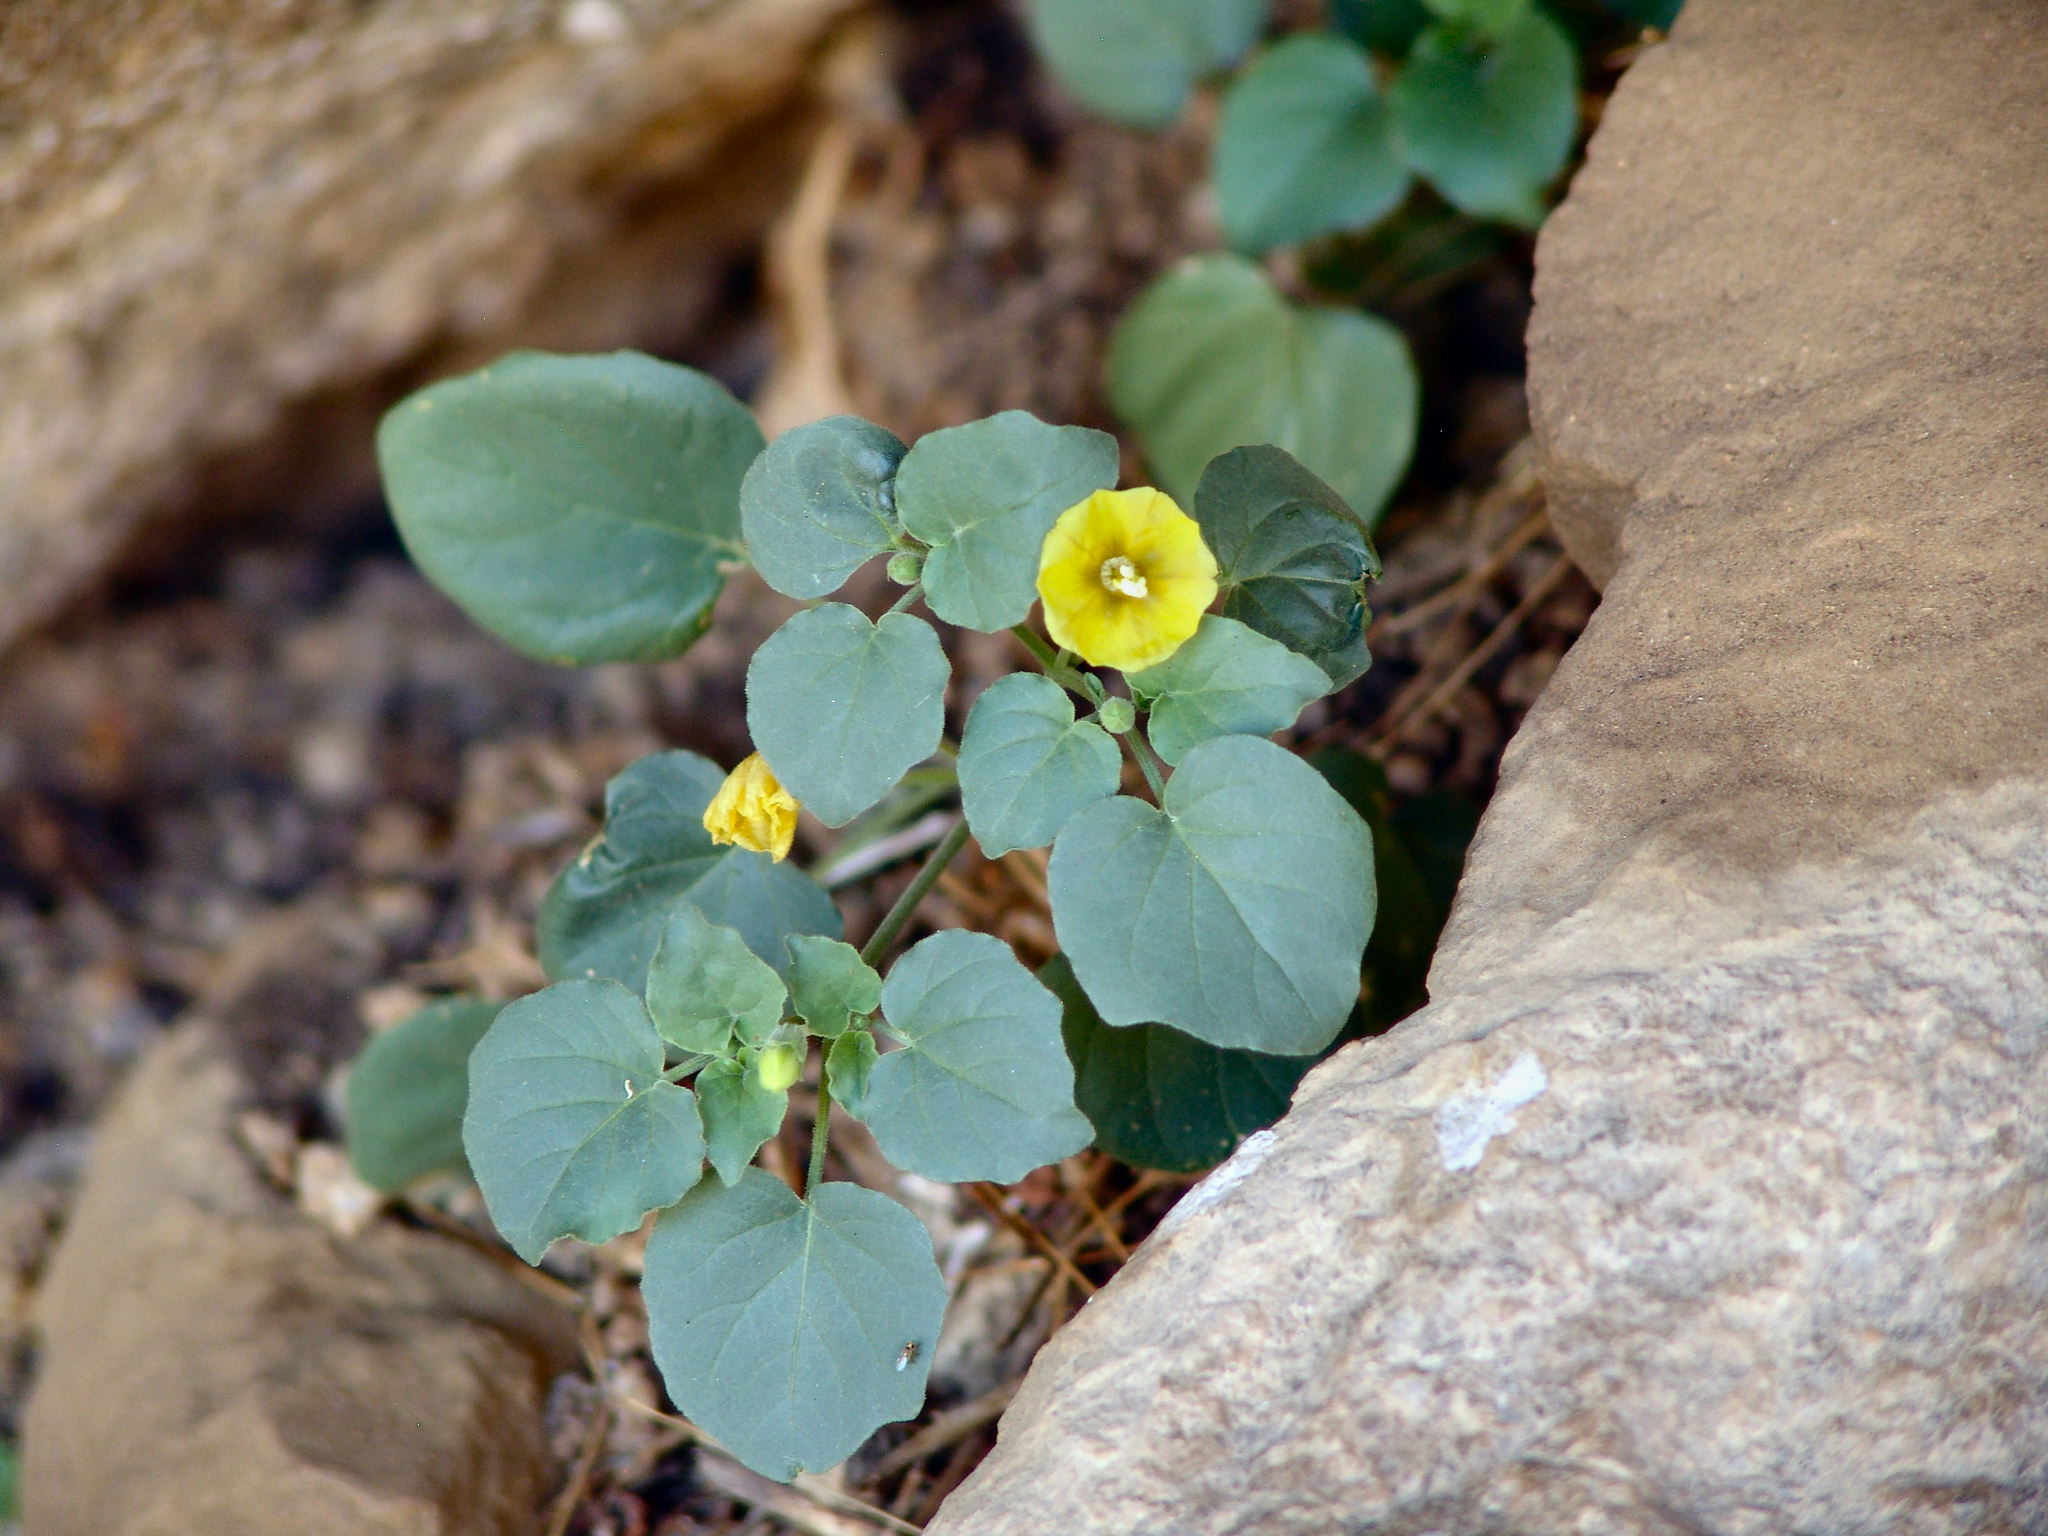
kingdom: Plantae
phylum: Tracheophyta
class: Magnoliopsida
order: Solanales
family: Solanaceae
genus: Physalis
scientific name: Physalis crassifolia
